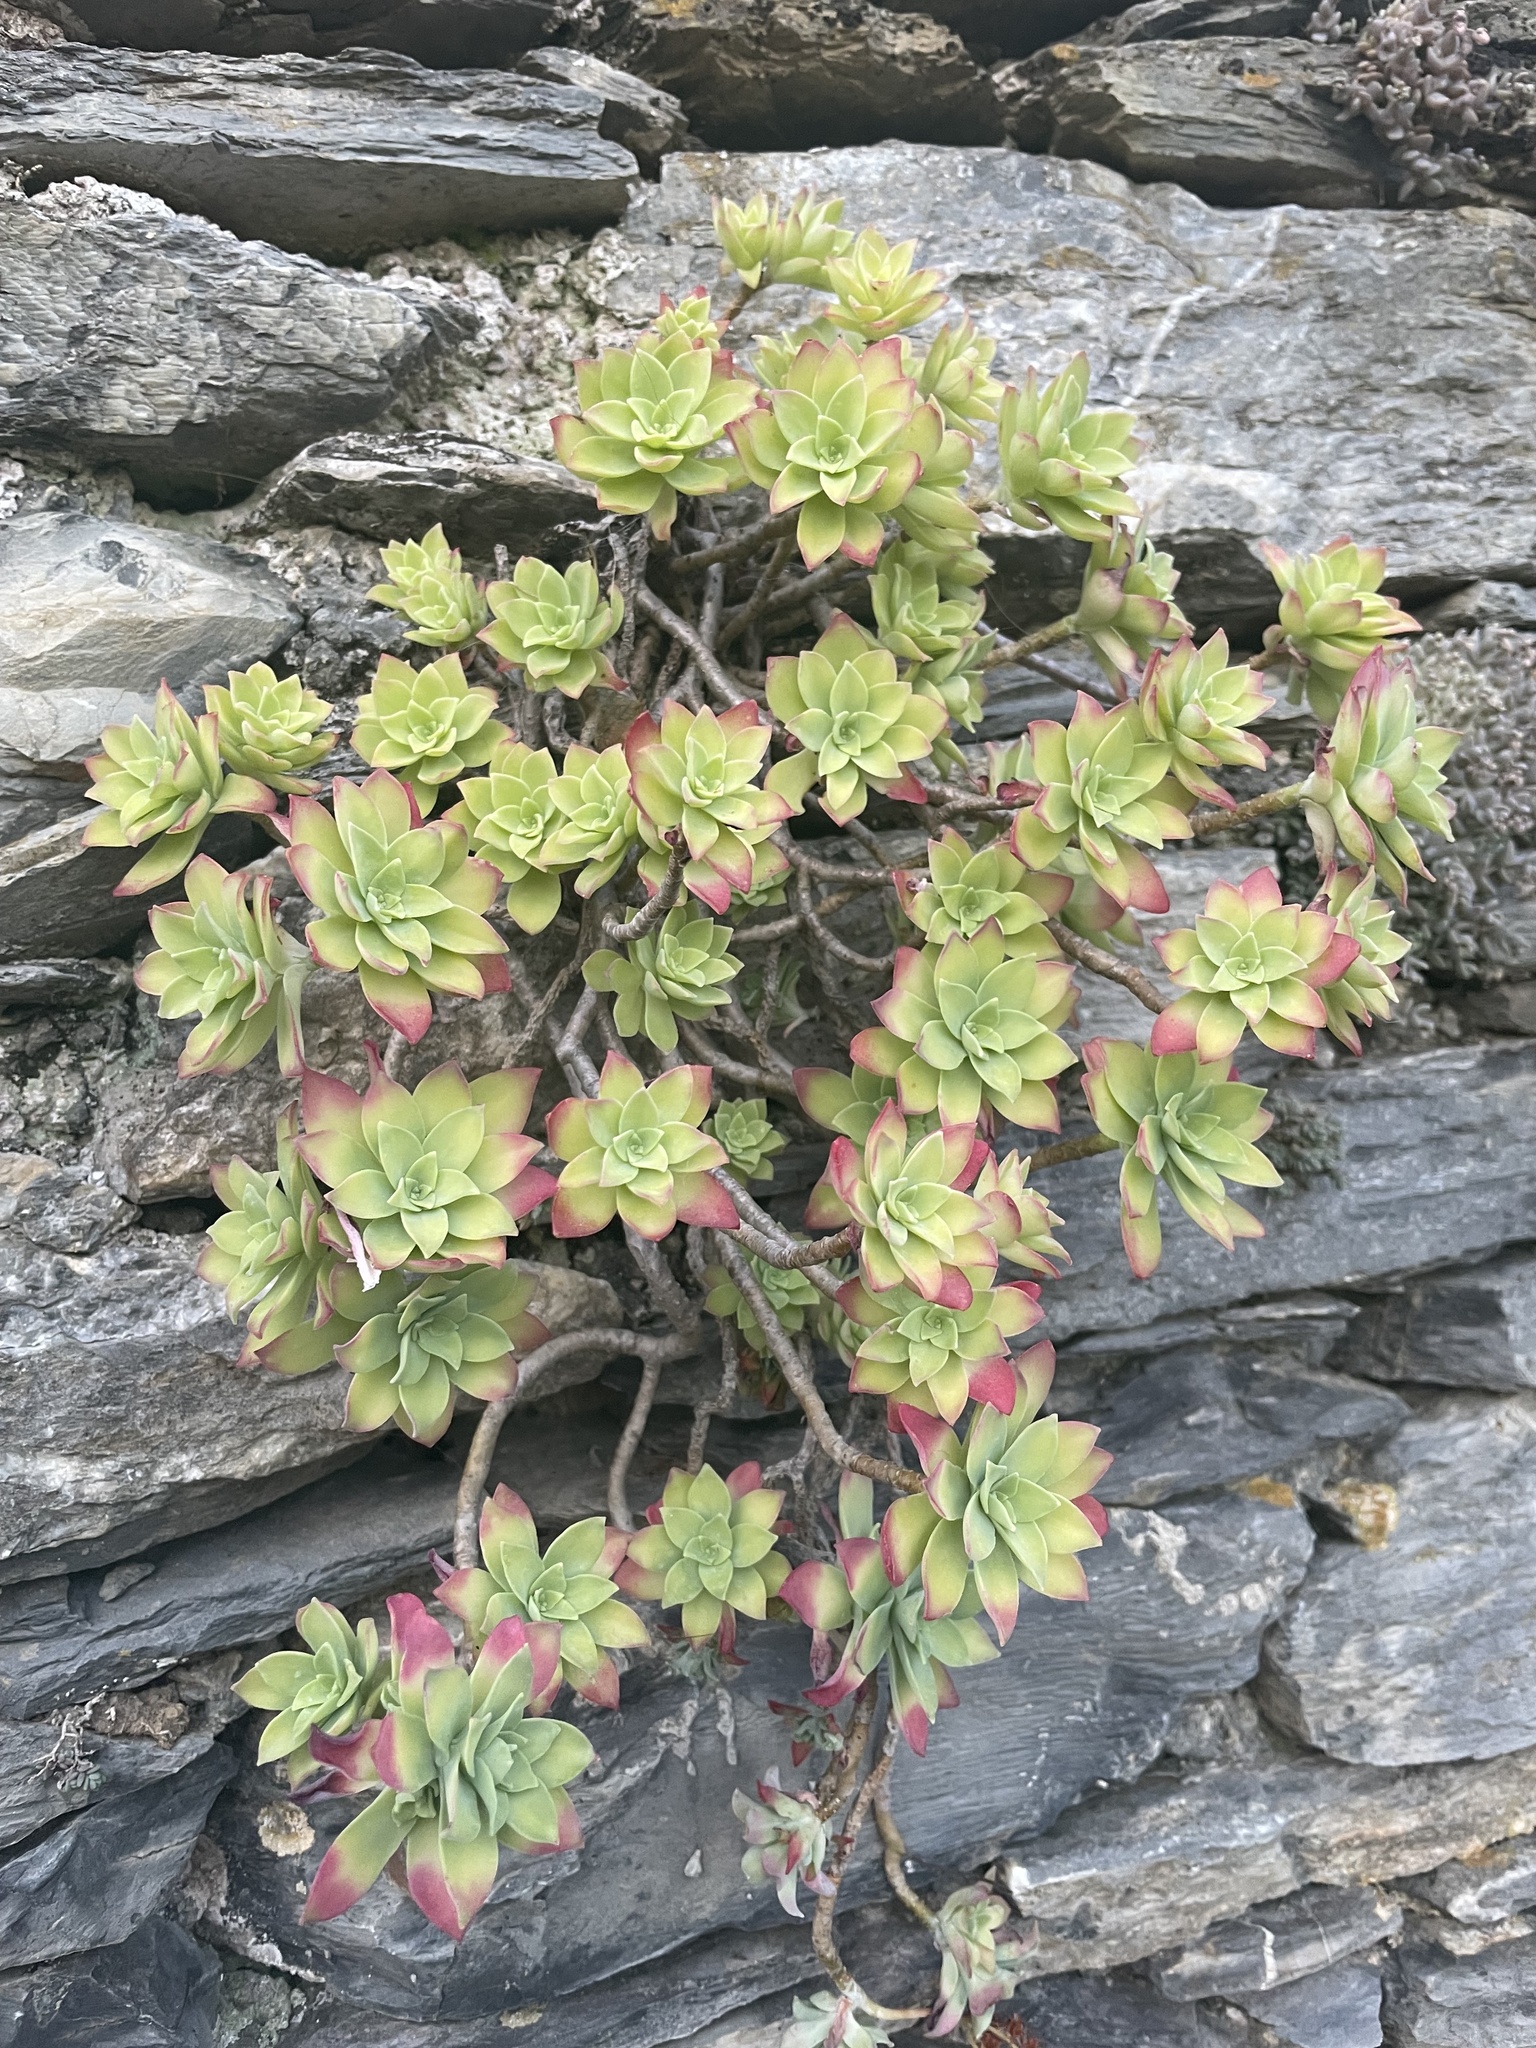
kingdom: Plantae
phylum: Tracheophyta
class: Magnoliopsida
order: Saxifragales
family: Crassulaceae
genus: Sedum
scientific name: Sedum palmeri
